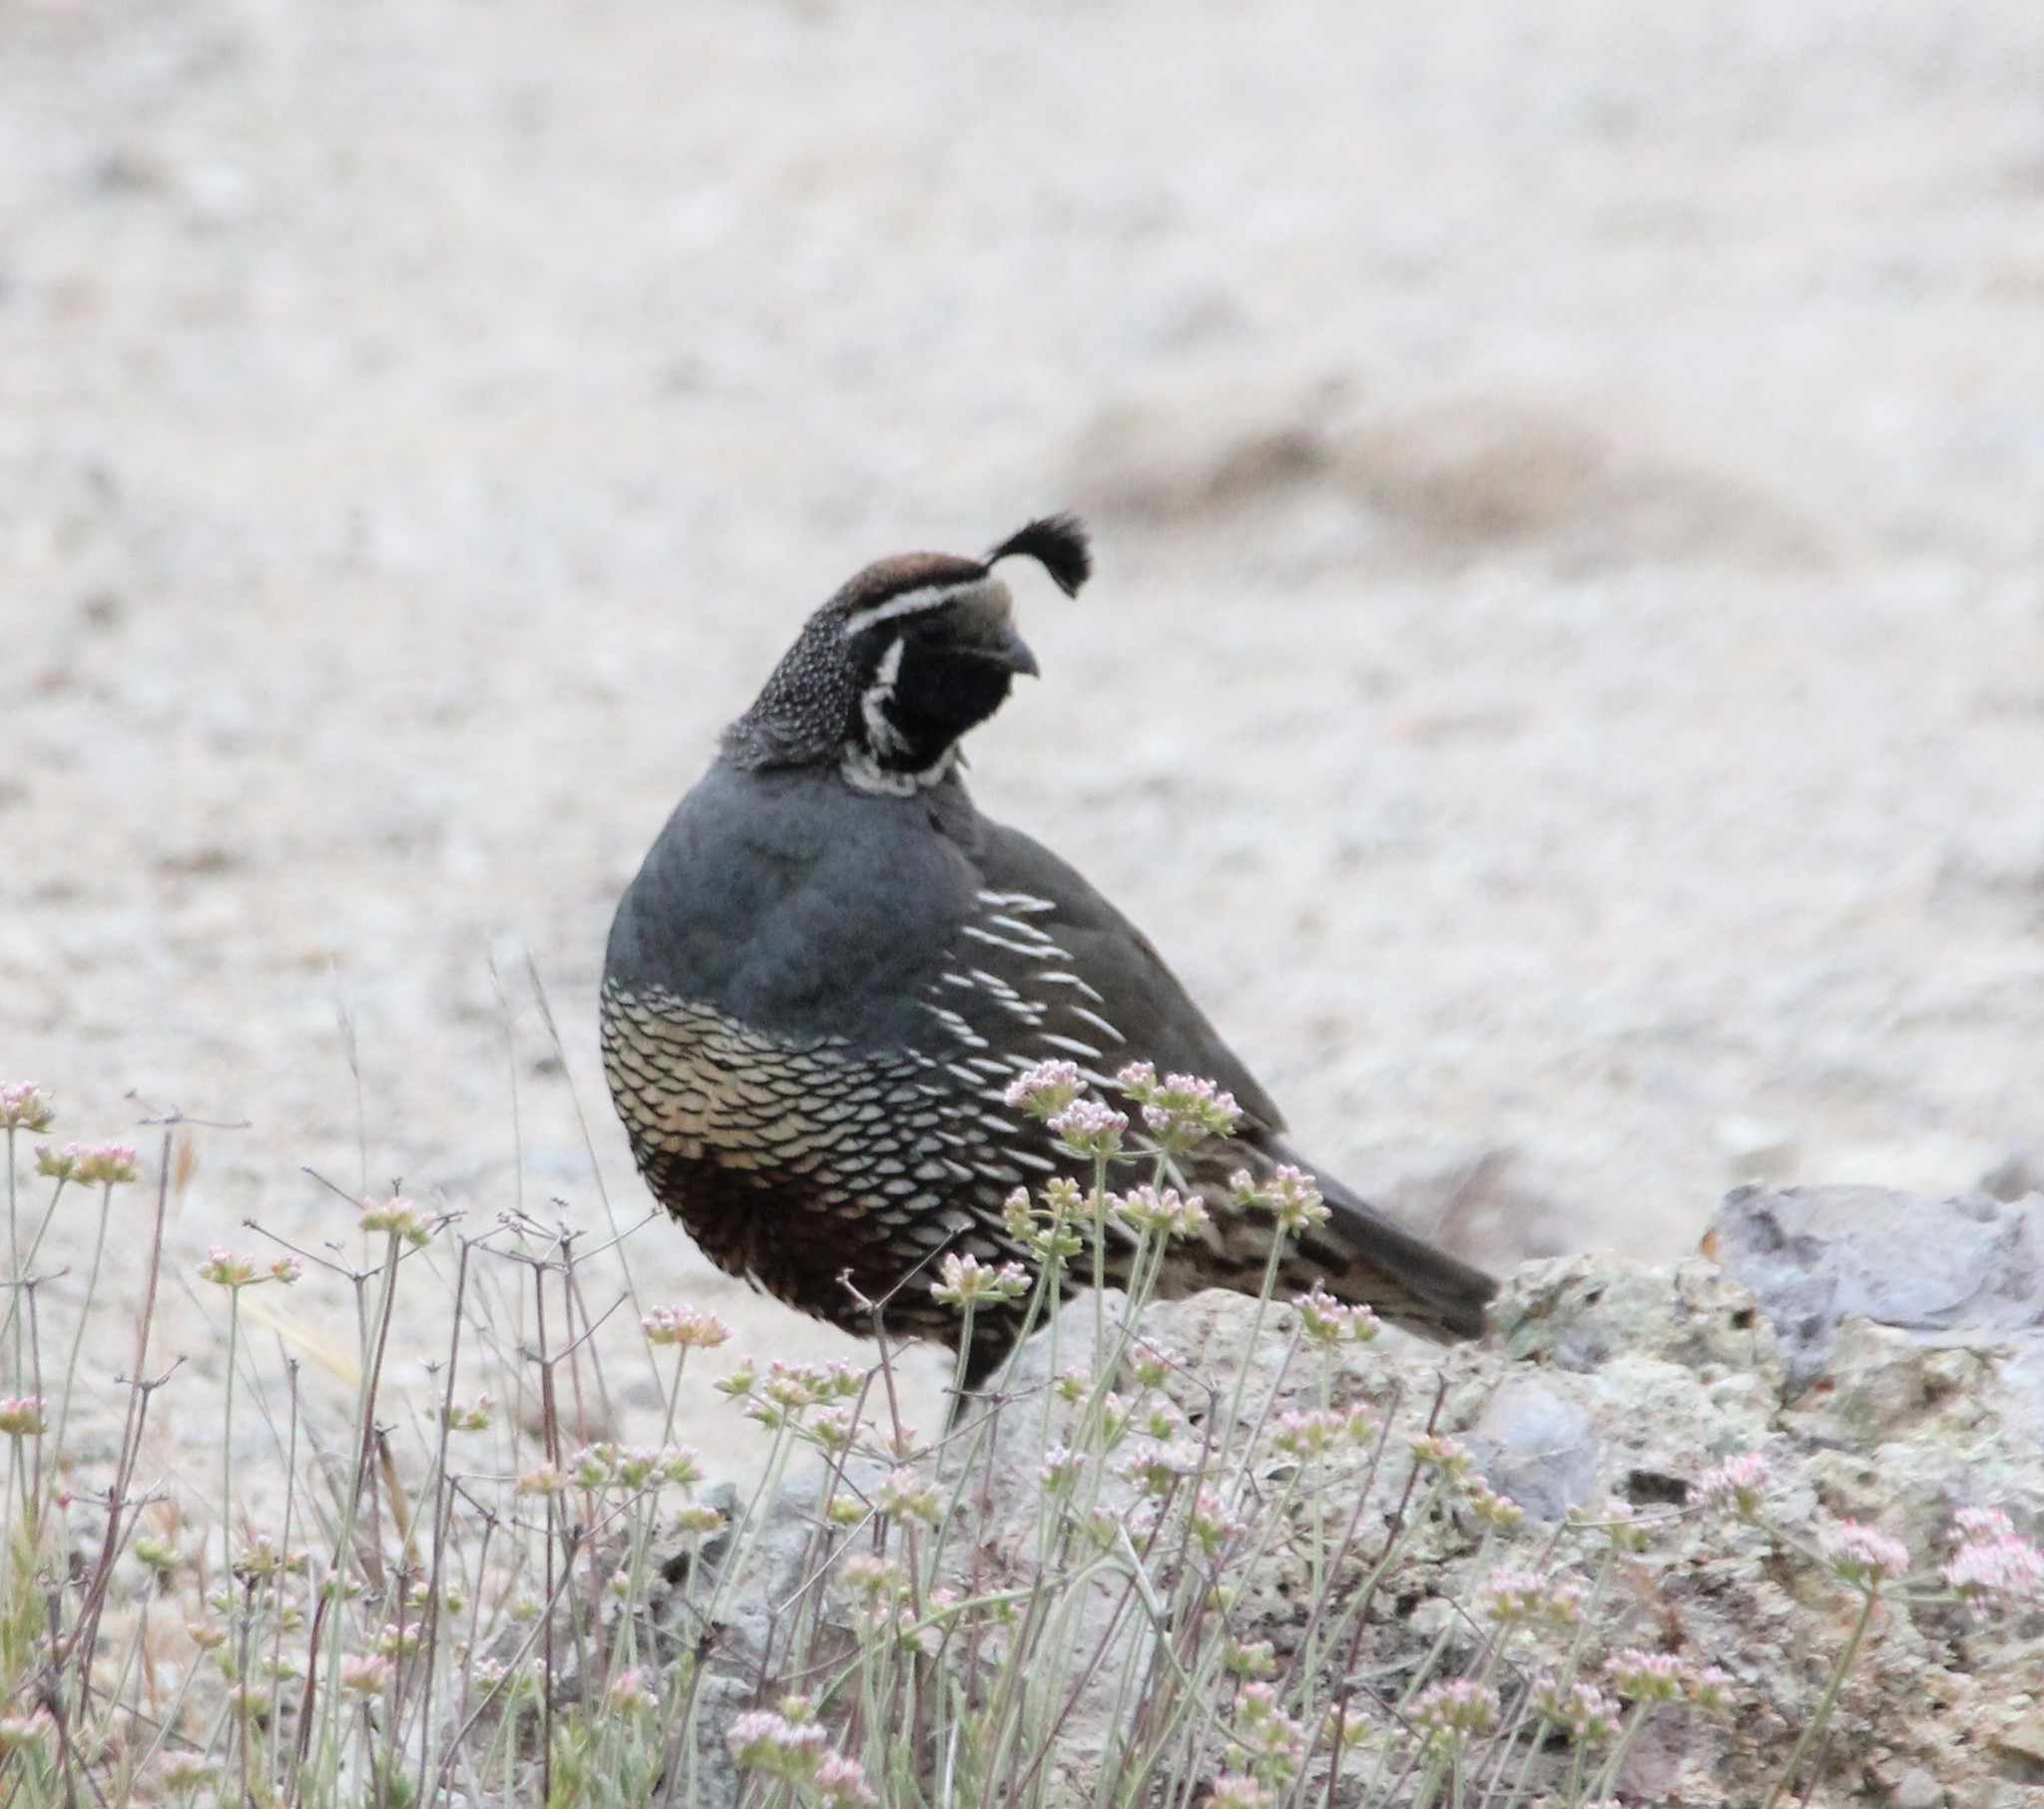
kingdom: Animalia
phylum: Chordata
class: Aves
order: Galliformes
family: Odontophoridae
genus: Callipepla
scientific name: Callipepla californica
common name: California quail
